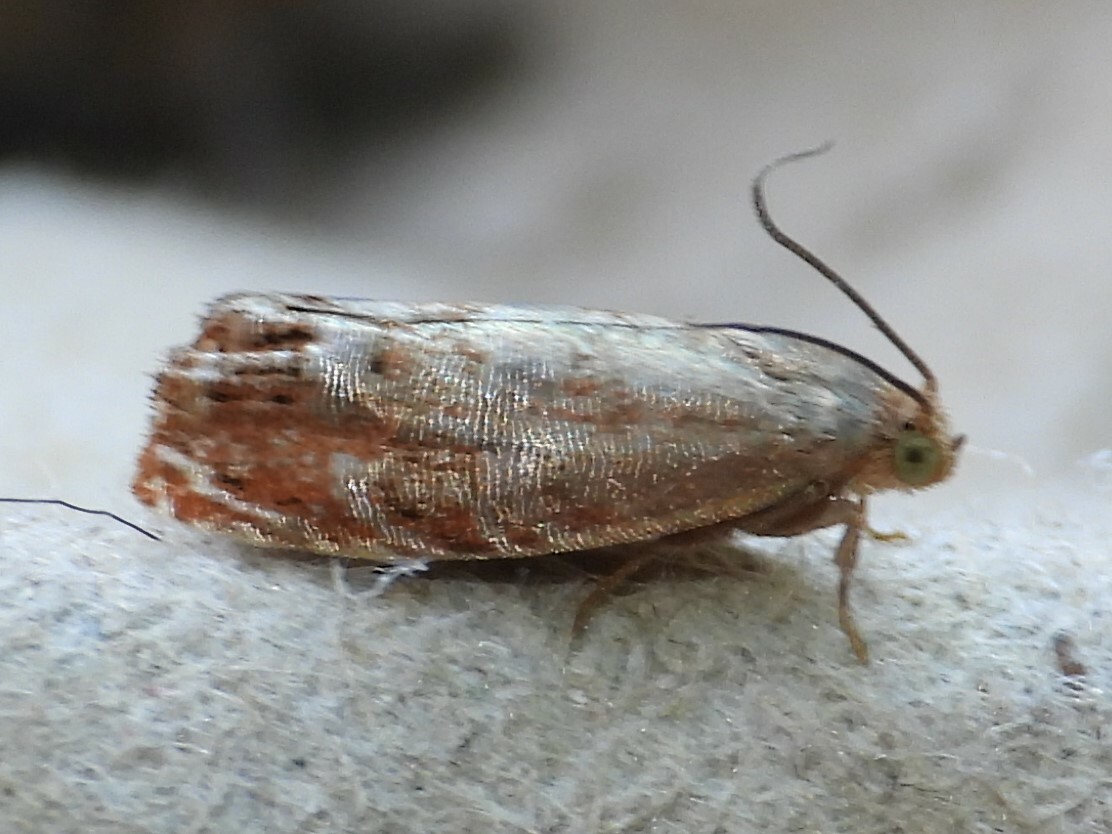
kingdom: Animalia
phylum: Arthropoda
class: Insecta
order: Lepidoptera
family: Tortricidae
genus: Cydia
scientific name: Cydia latiferreana
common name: Filbertworm moth
